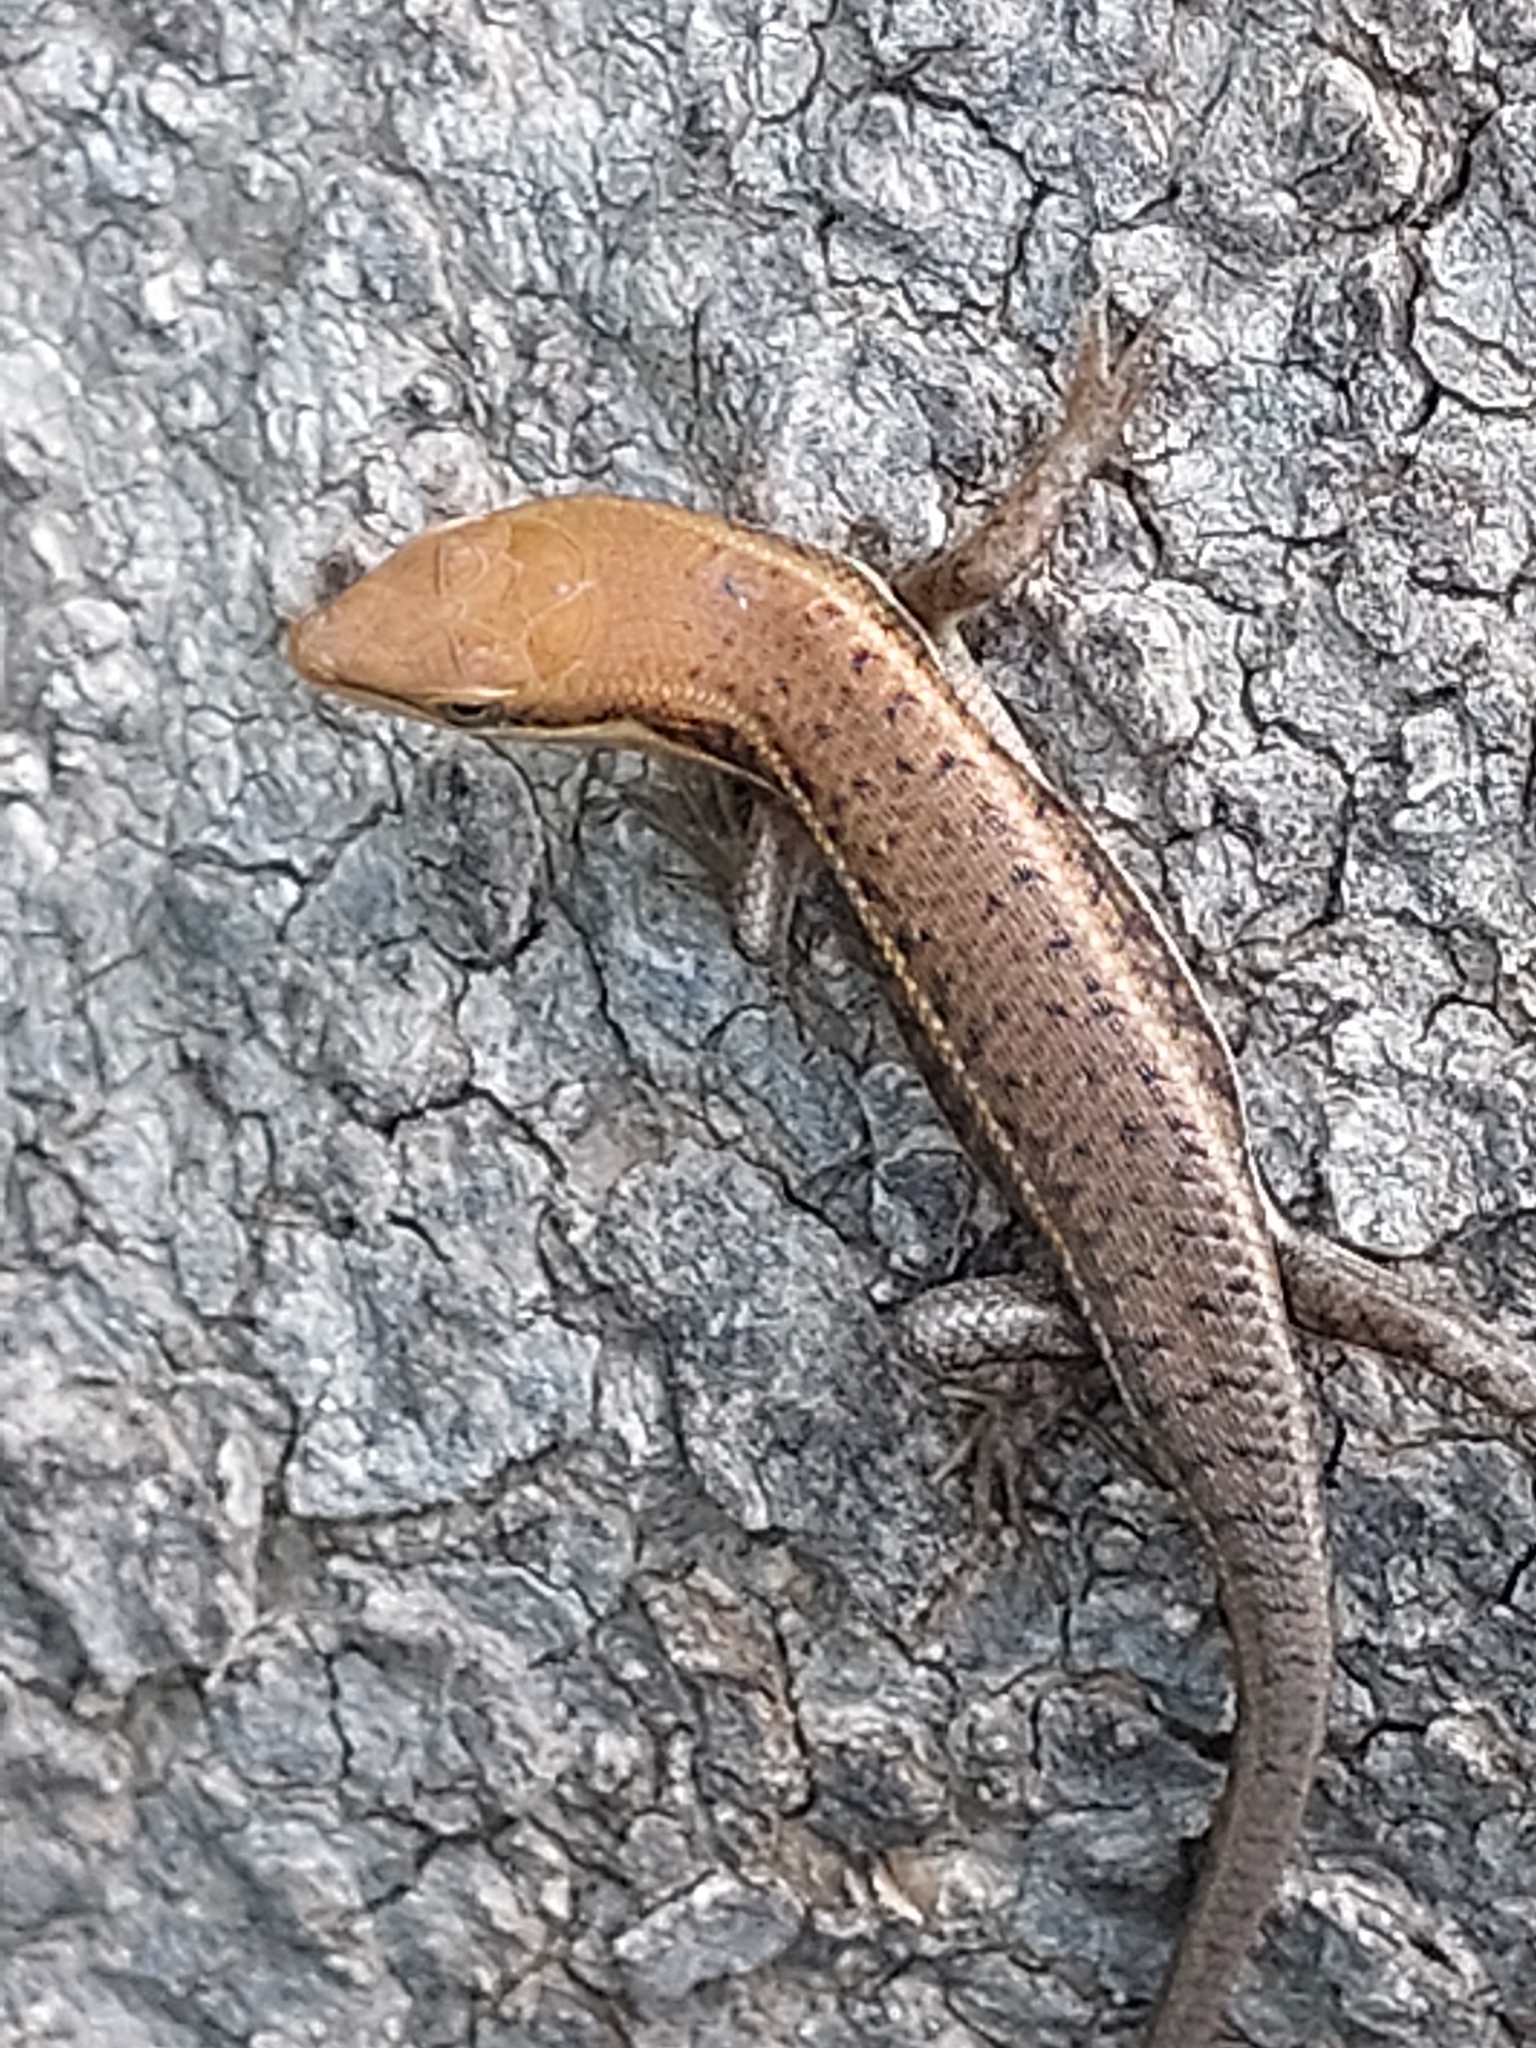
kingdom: Animalia
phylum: Chordata
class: Squamata
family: Scincidae
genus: Trachylepis
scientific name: Trachylepis varia
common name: Eastern variable skink
